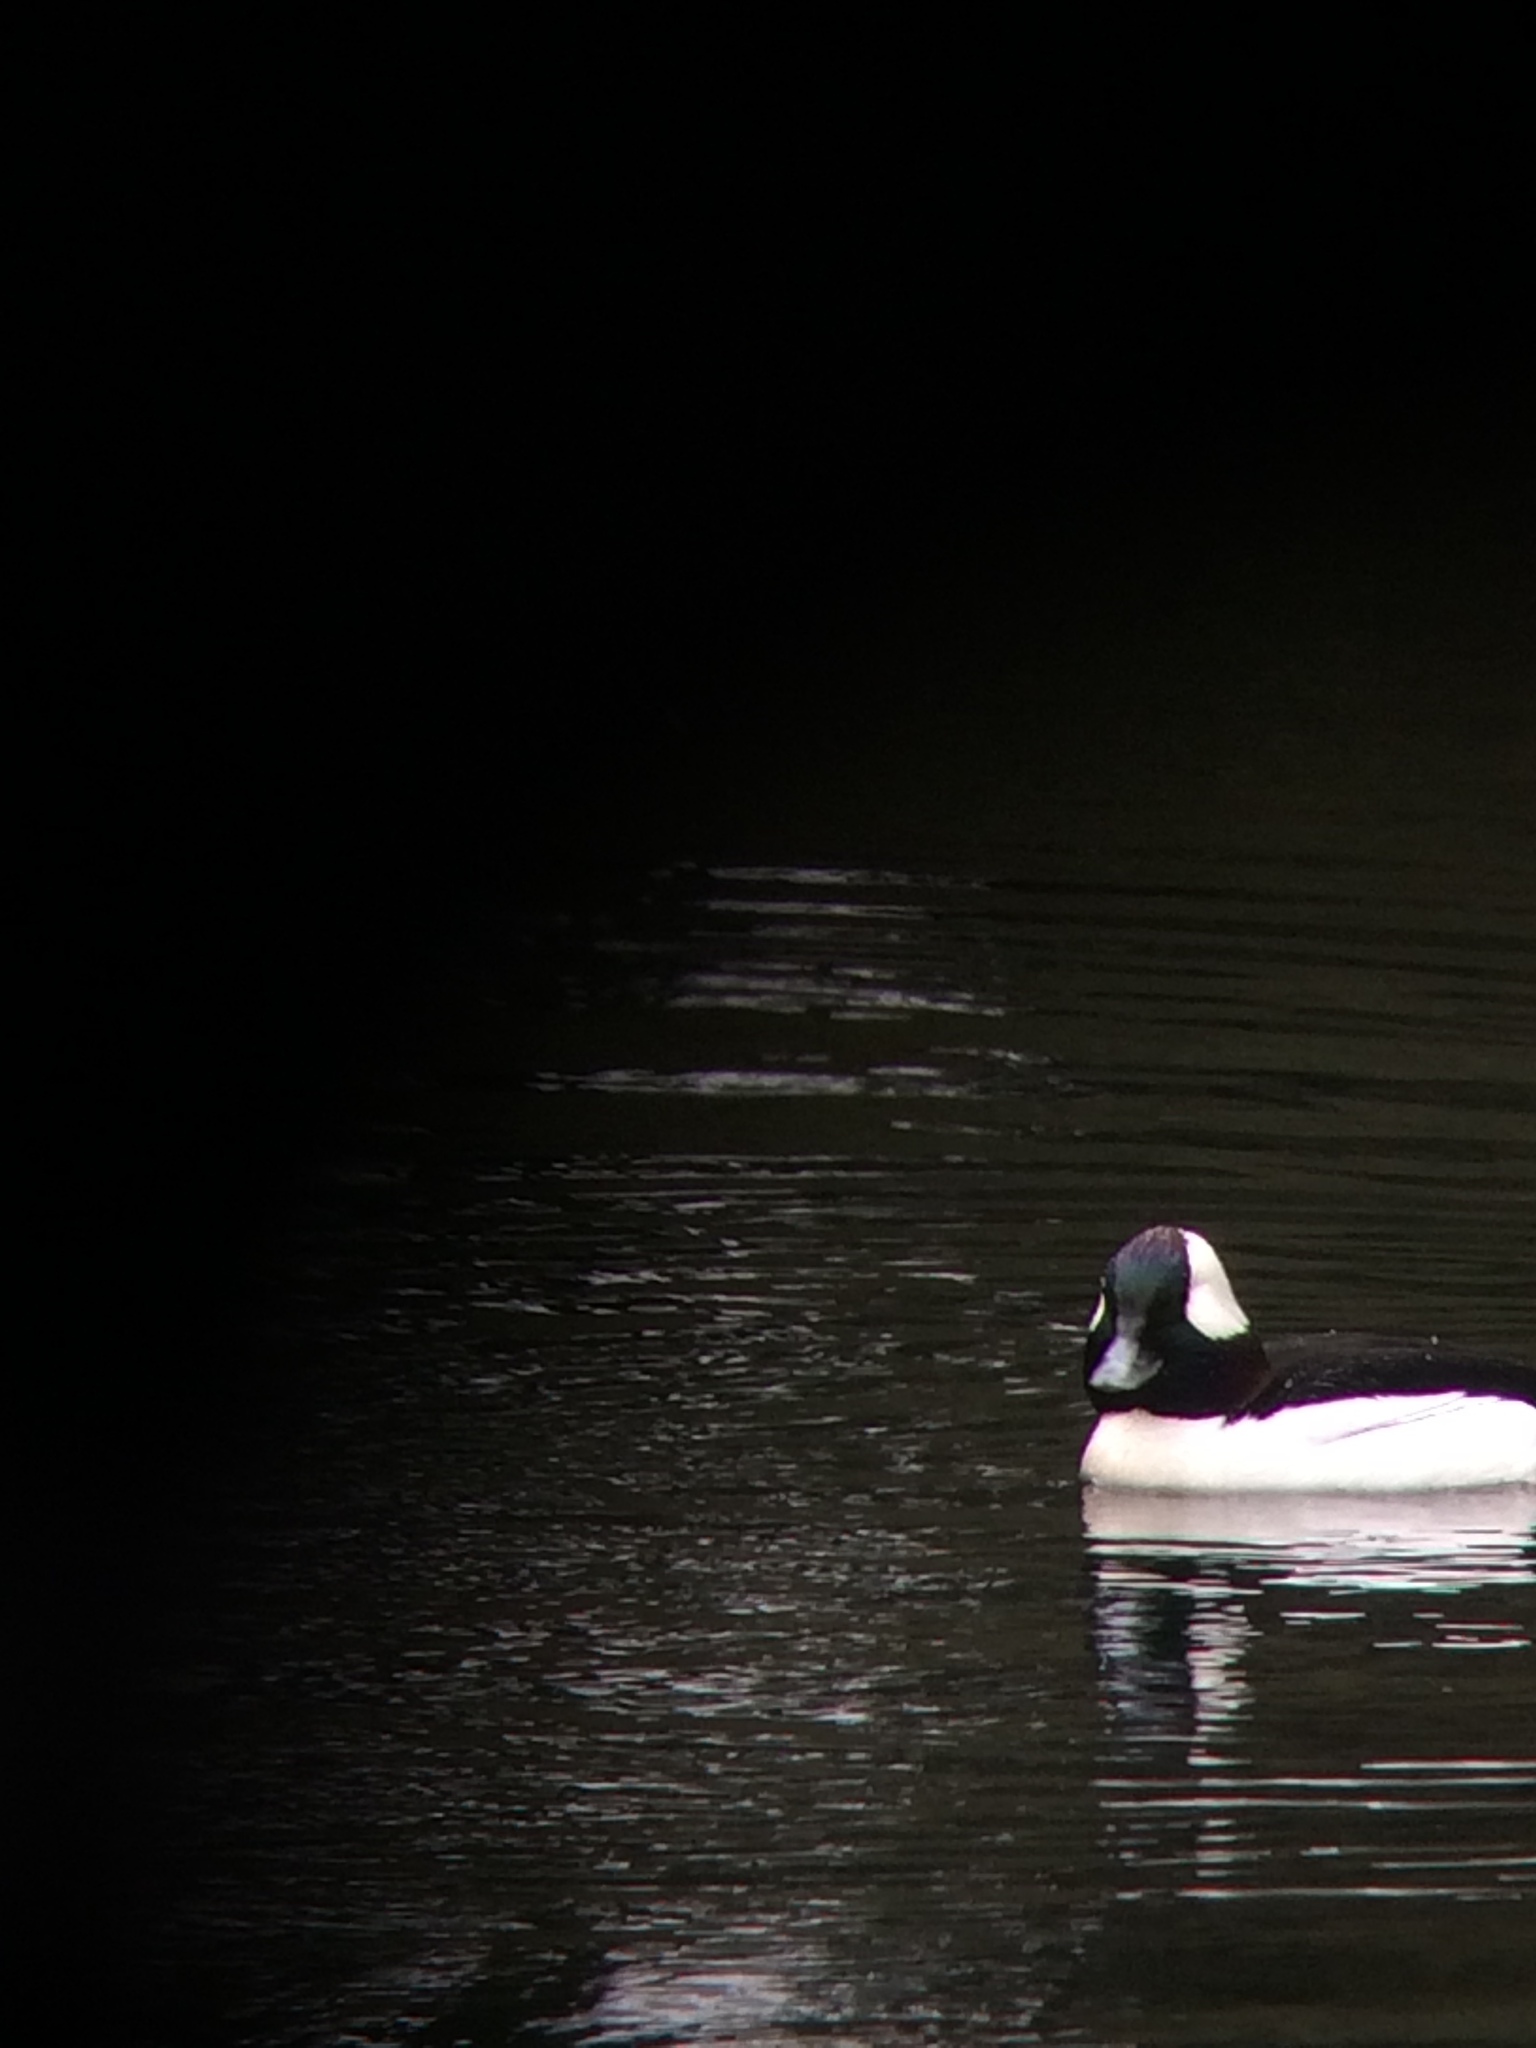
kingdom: Animalia
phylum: Chordata
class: Aves
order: Anseriformes
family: Anatidae
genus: Bucephala
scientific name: Bucephala albeola
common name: Bufflehead
